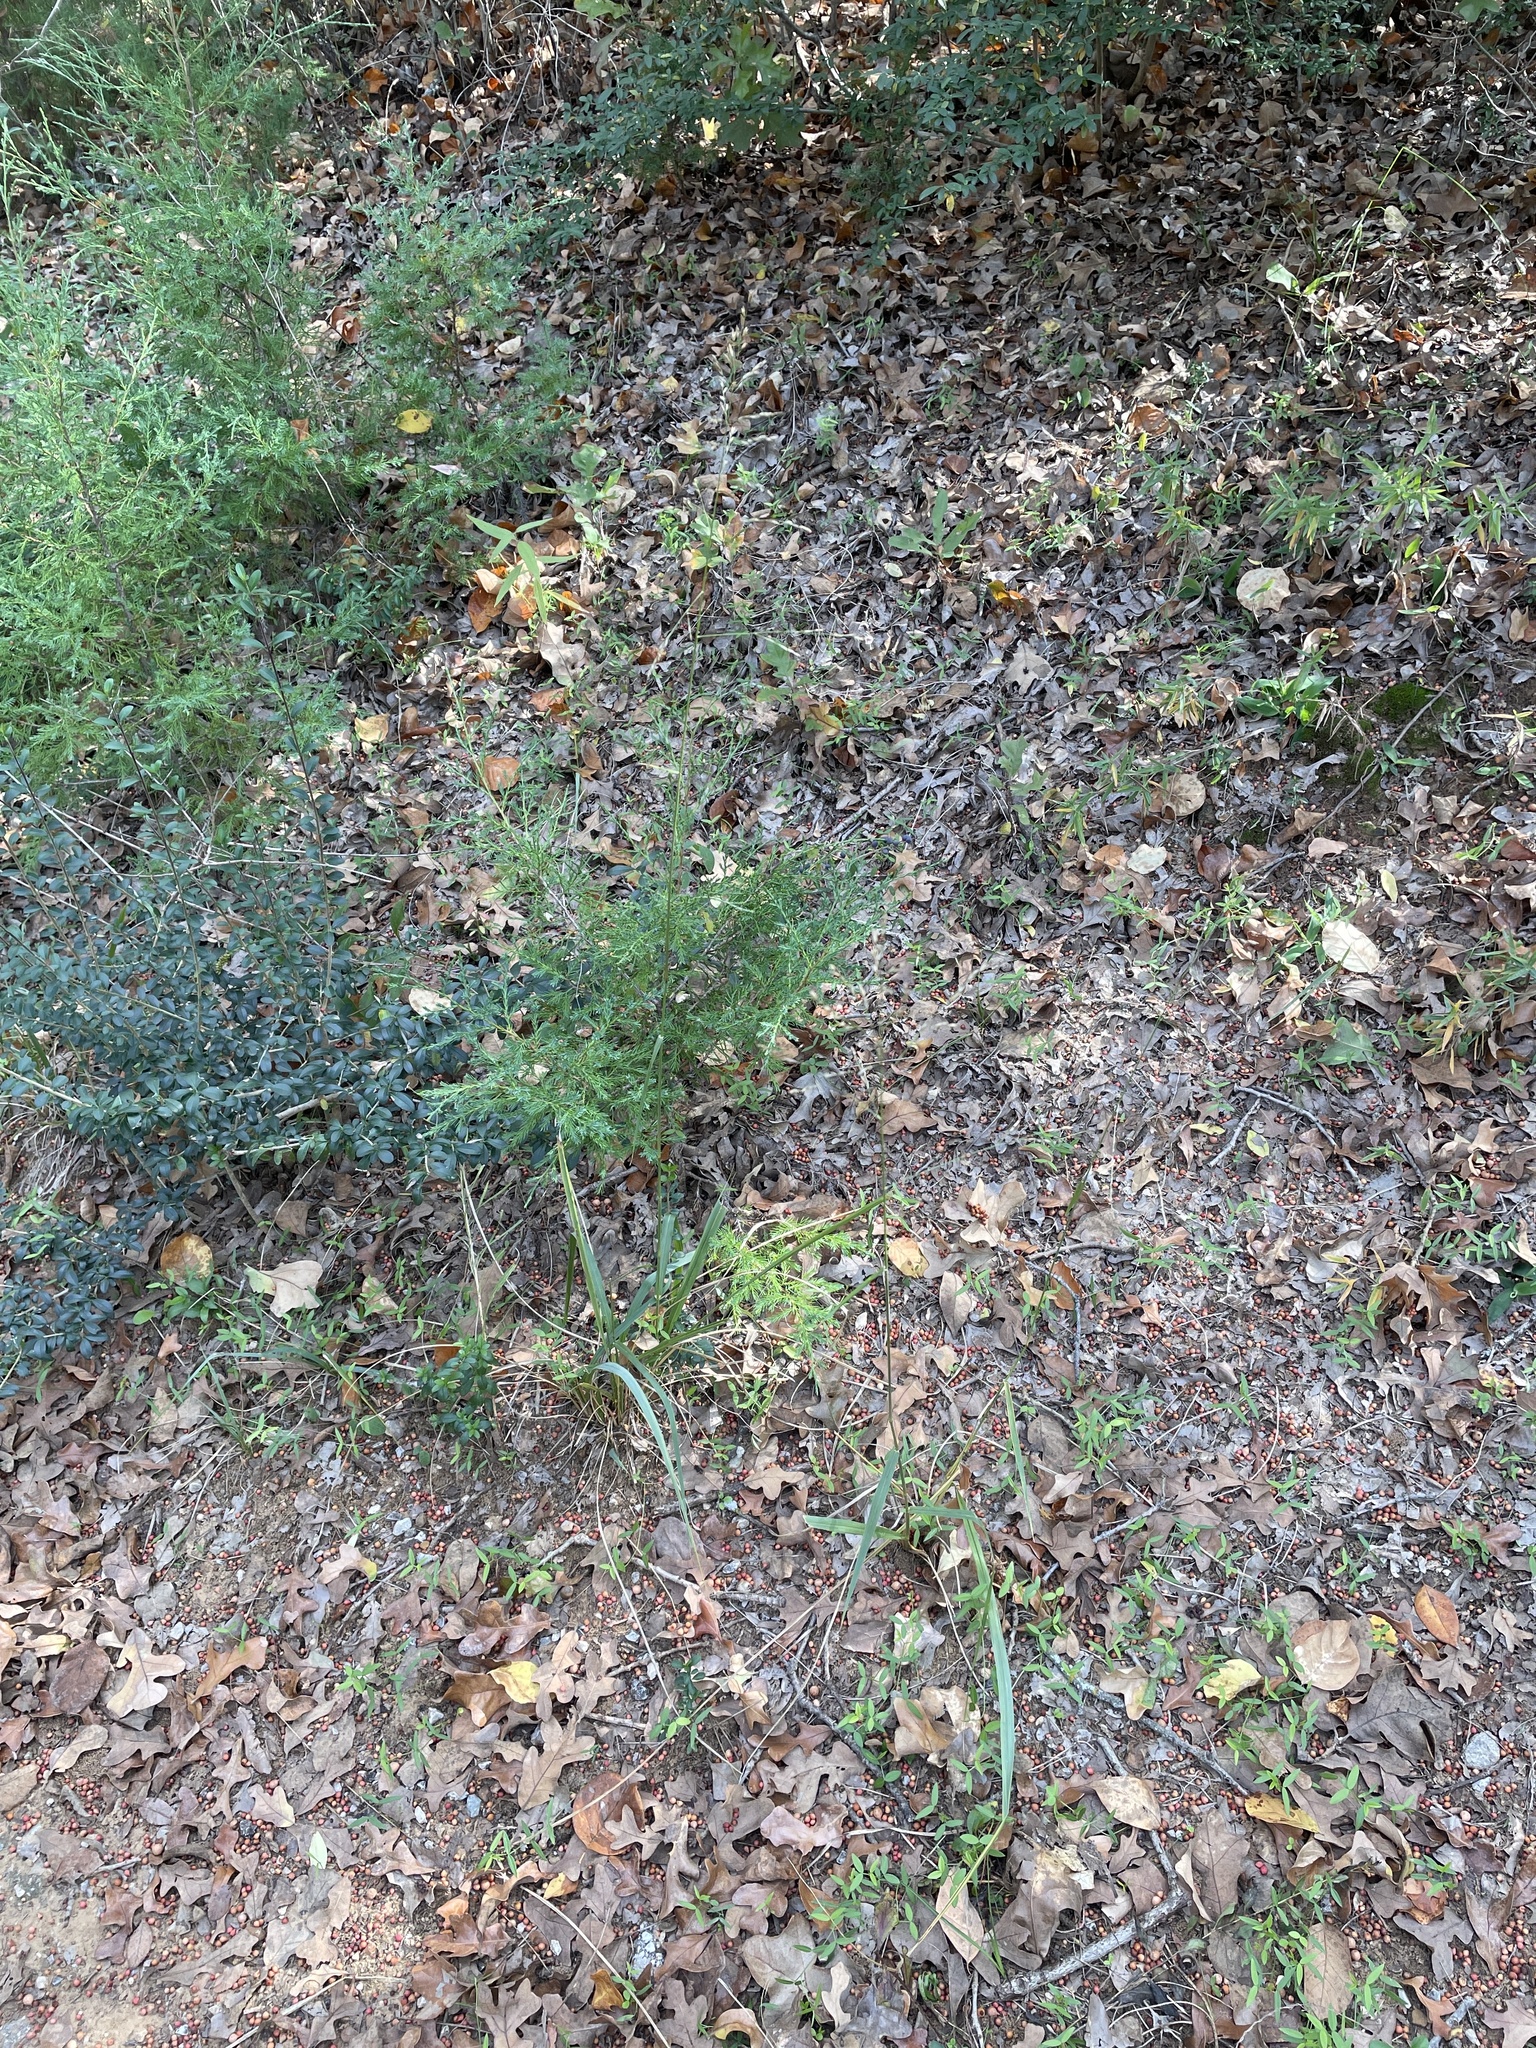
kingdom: Plantae
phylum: Tracheophyta
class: Liliopsida
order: Poales
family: Poaceae
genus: Tridens
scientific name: Tridens flavus
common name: Purpletop
